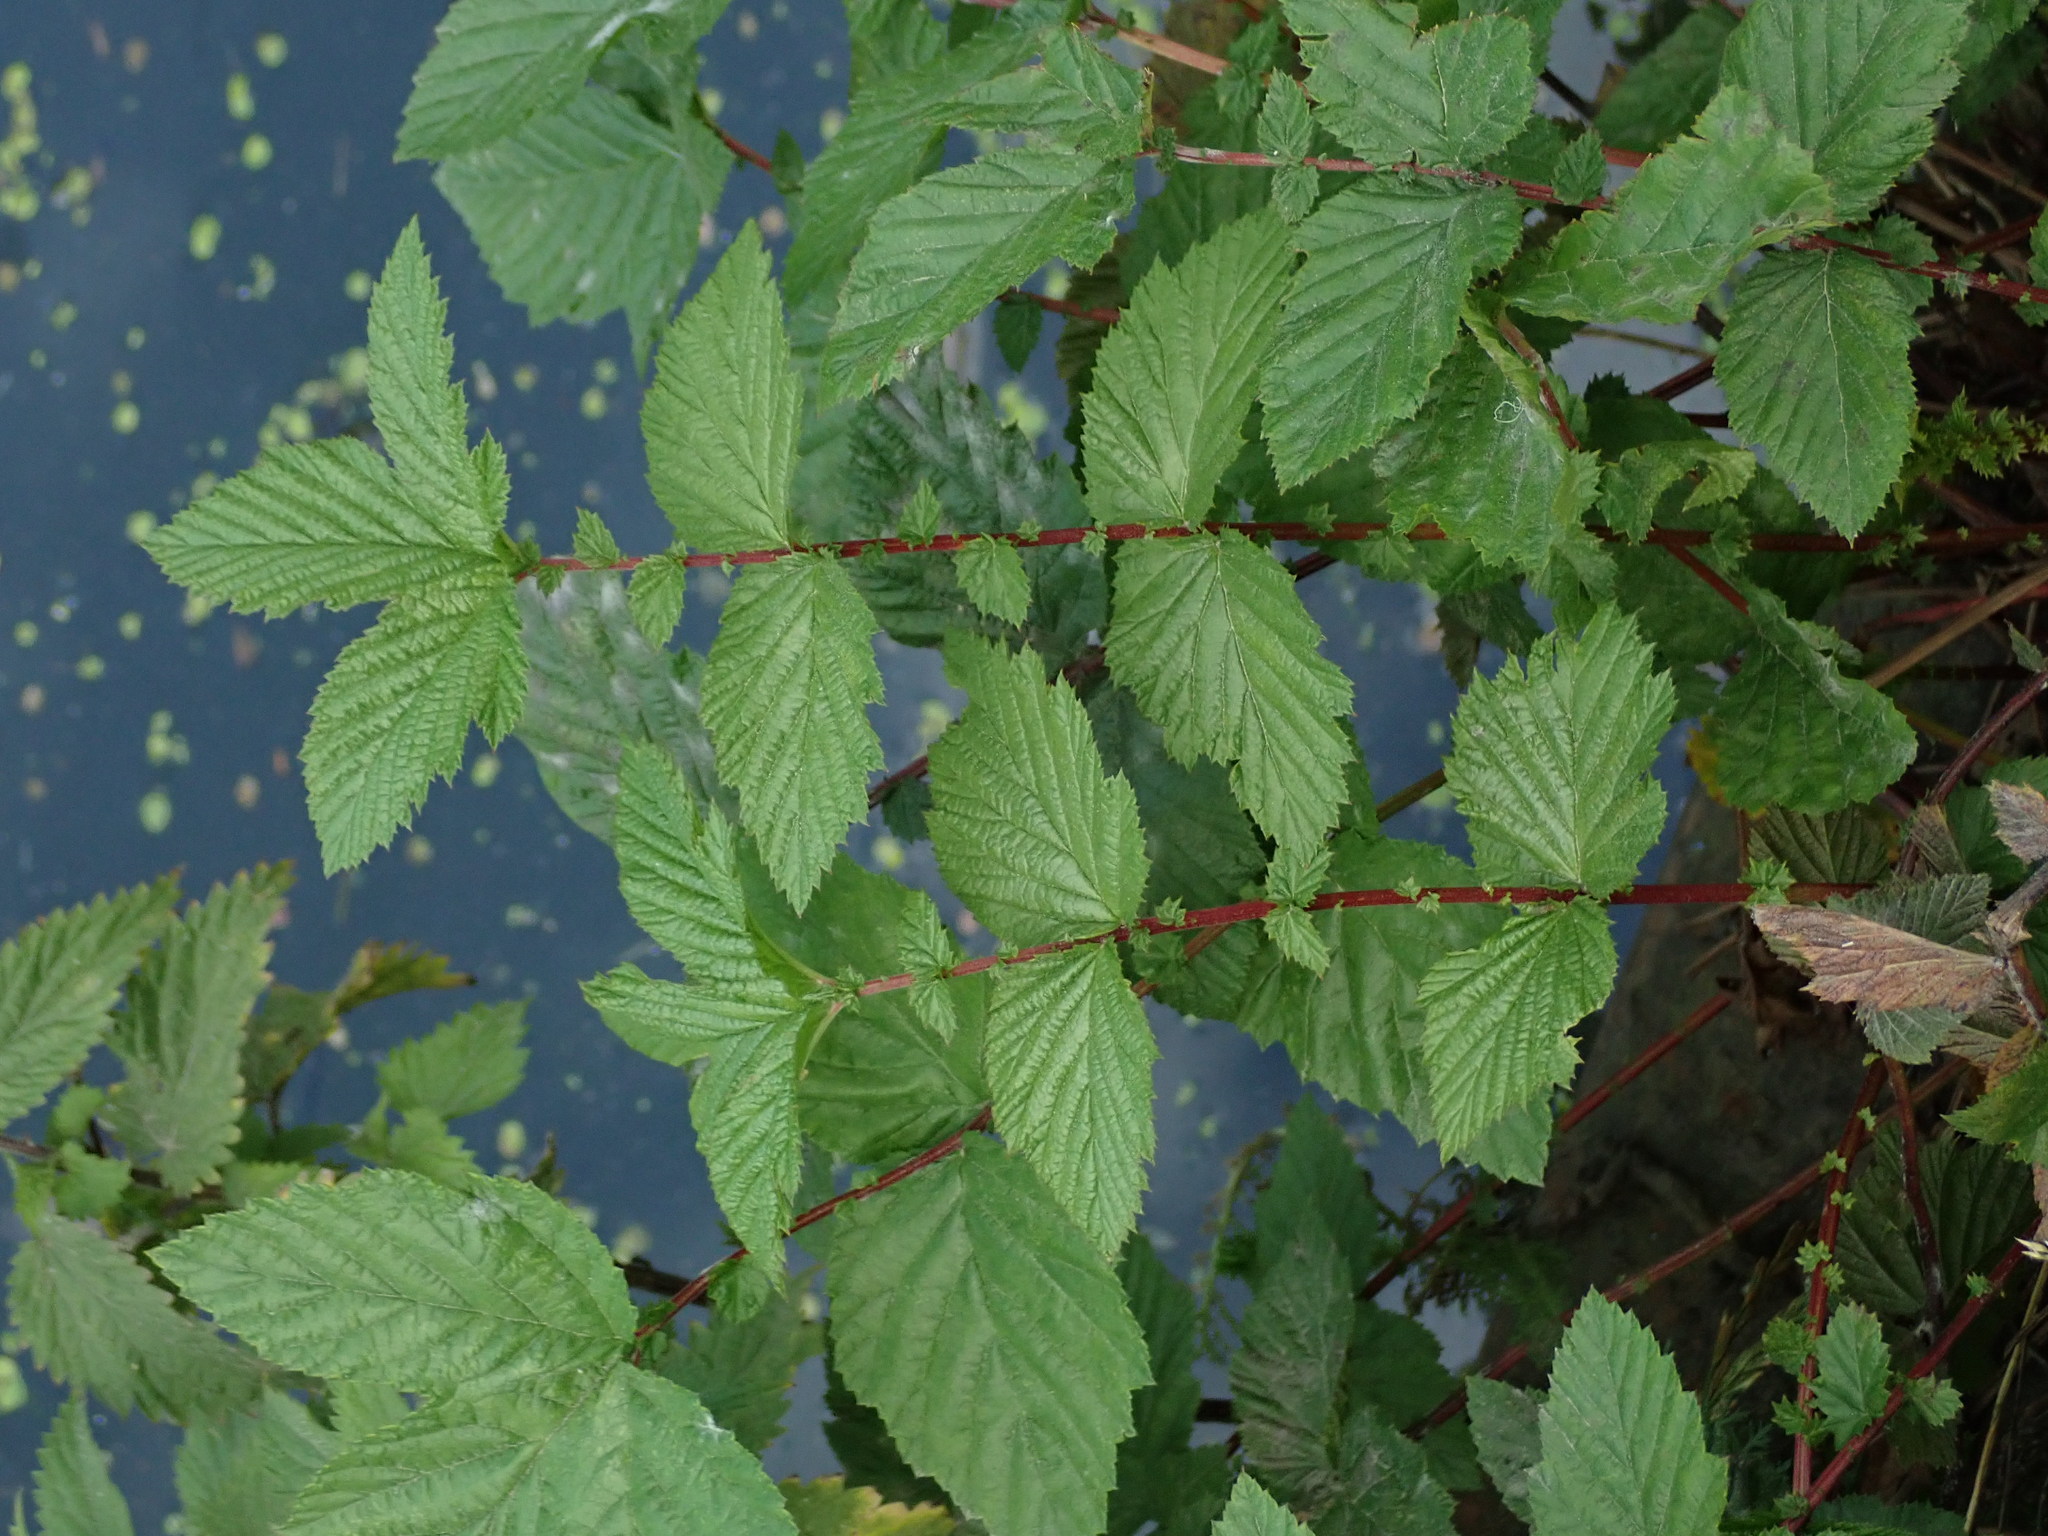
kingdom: Plantae
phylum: Tracheophyta
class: Magnoliopsida
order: Rosales
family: Rosaceae
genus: Filipendula
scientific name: Filipendula ulmaria
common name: Meadowsweet
